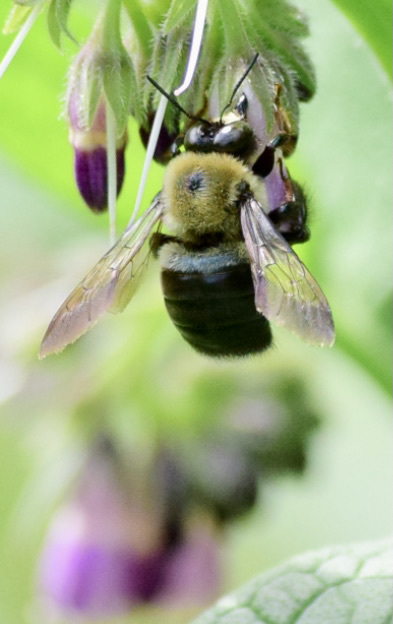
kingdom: Animalia
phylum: Arthropoda
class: Insecta
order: Hymenoptera
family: Apidae
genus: Xylocopa
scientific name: Xylocopa virginica
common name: Carpenter bee
